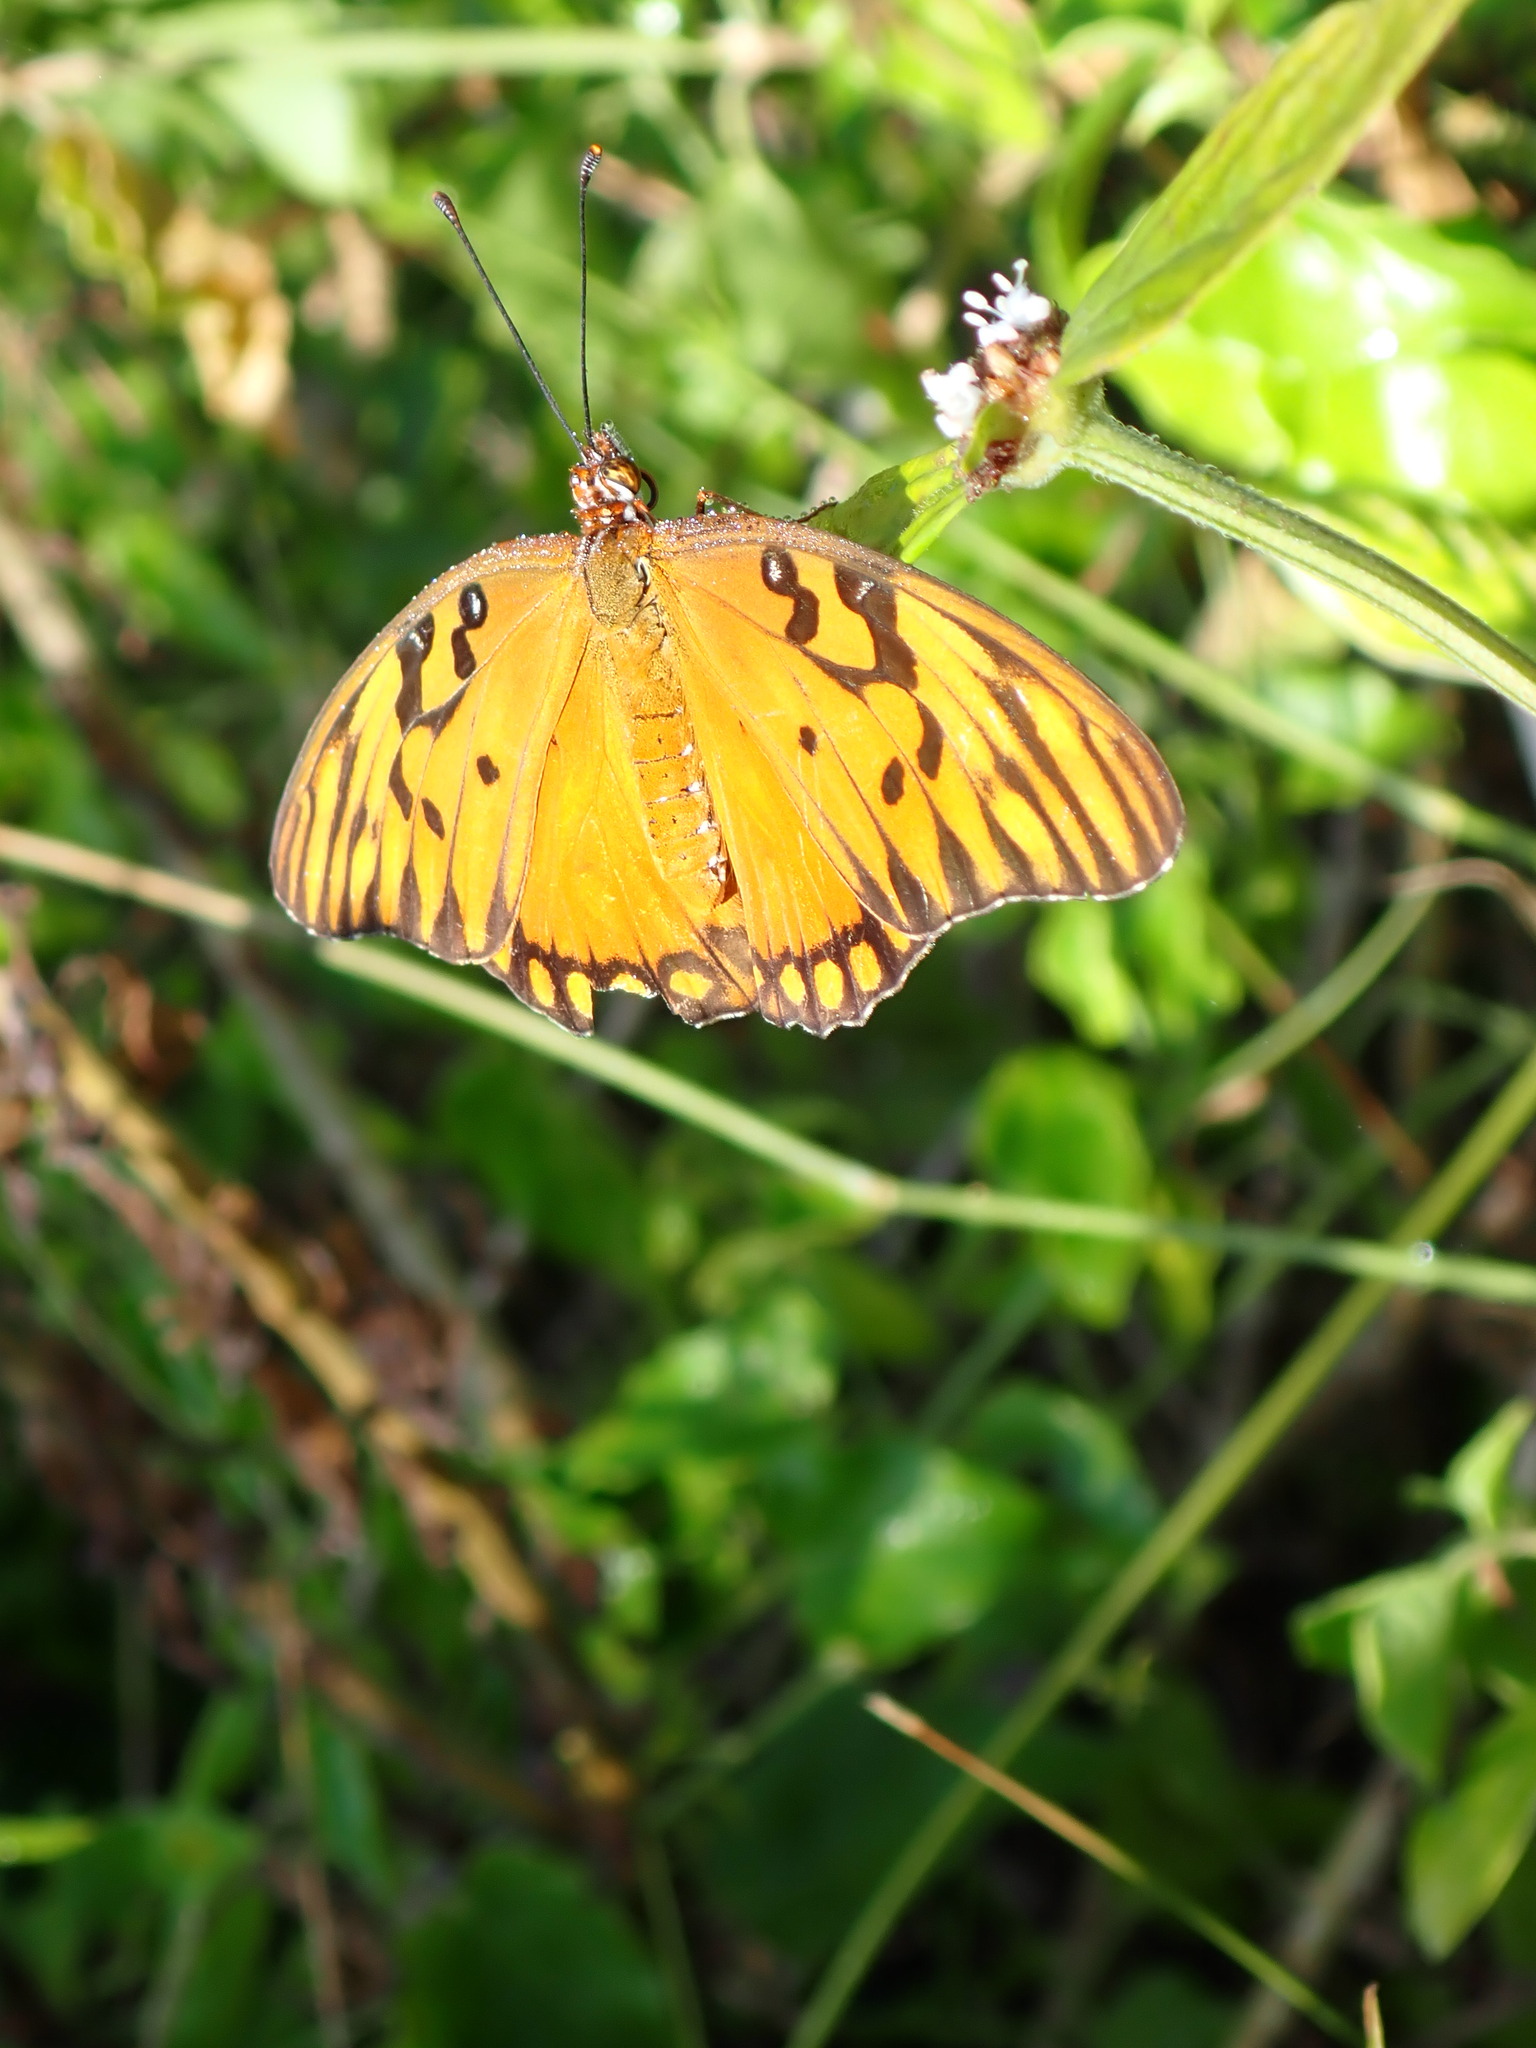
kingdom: Animalia
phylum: Arthropoda
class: Insecta
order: Lepidoptera
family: Nymphalidae
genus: Dione
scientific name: Dione vanillae
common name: Gulf fritillary
